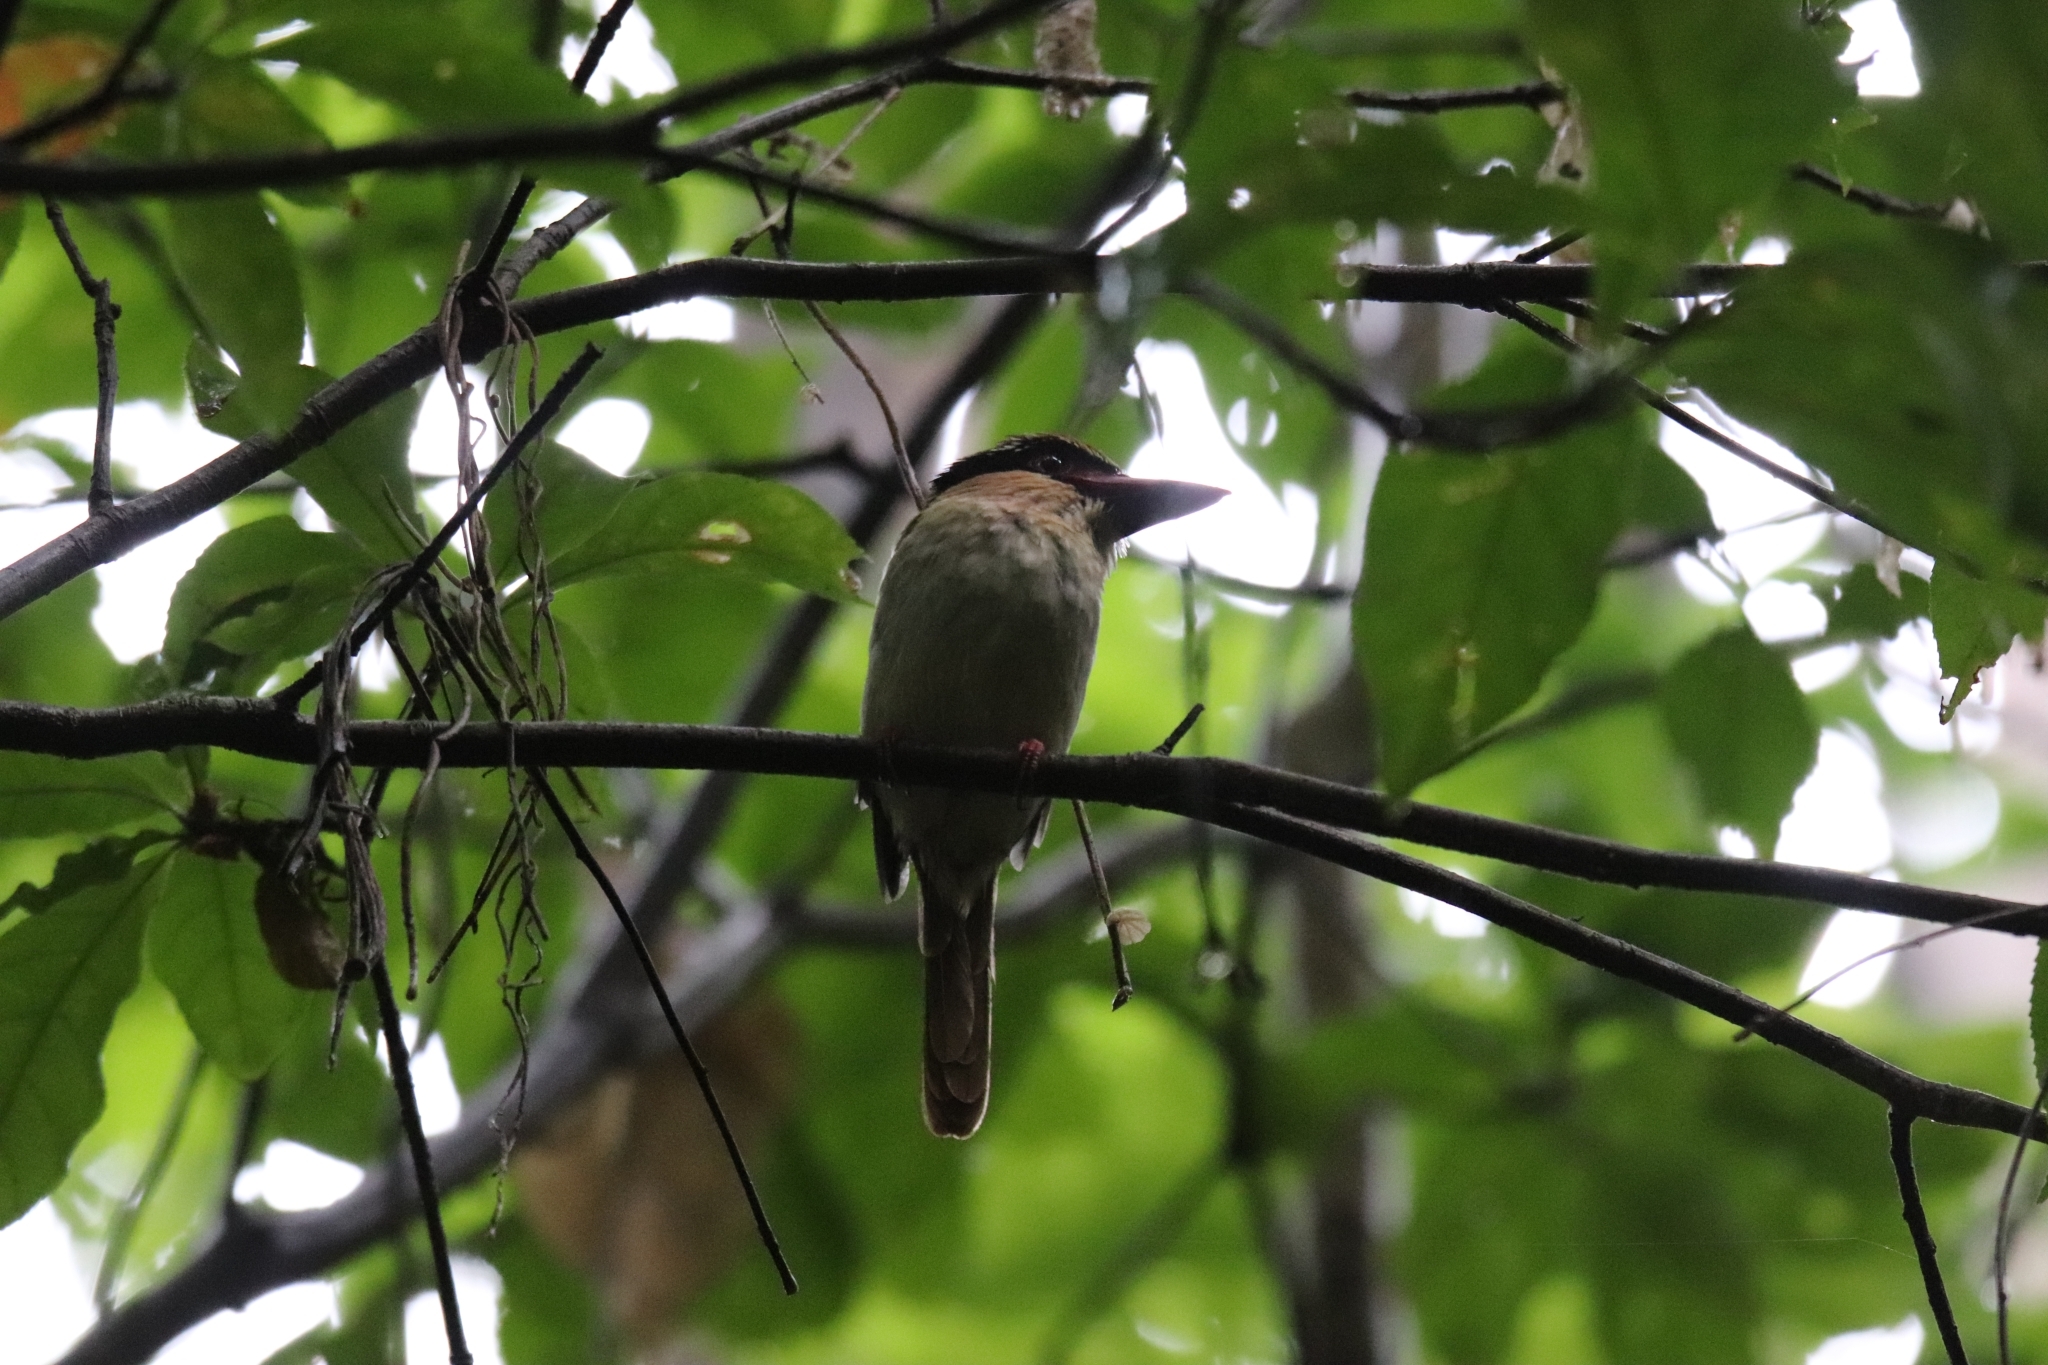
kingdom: Animalia
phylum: Chordata
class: Aves
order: Coraciiformes
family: Alcedinidae
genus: Cittura
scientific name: Cittura cyanotis
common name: Lilac kingfisher
